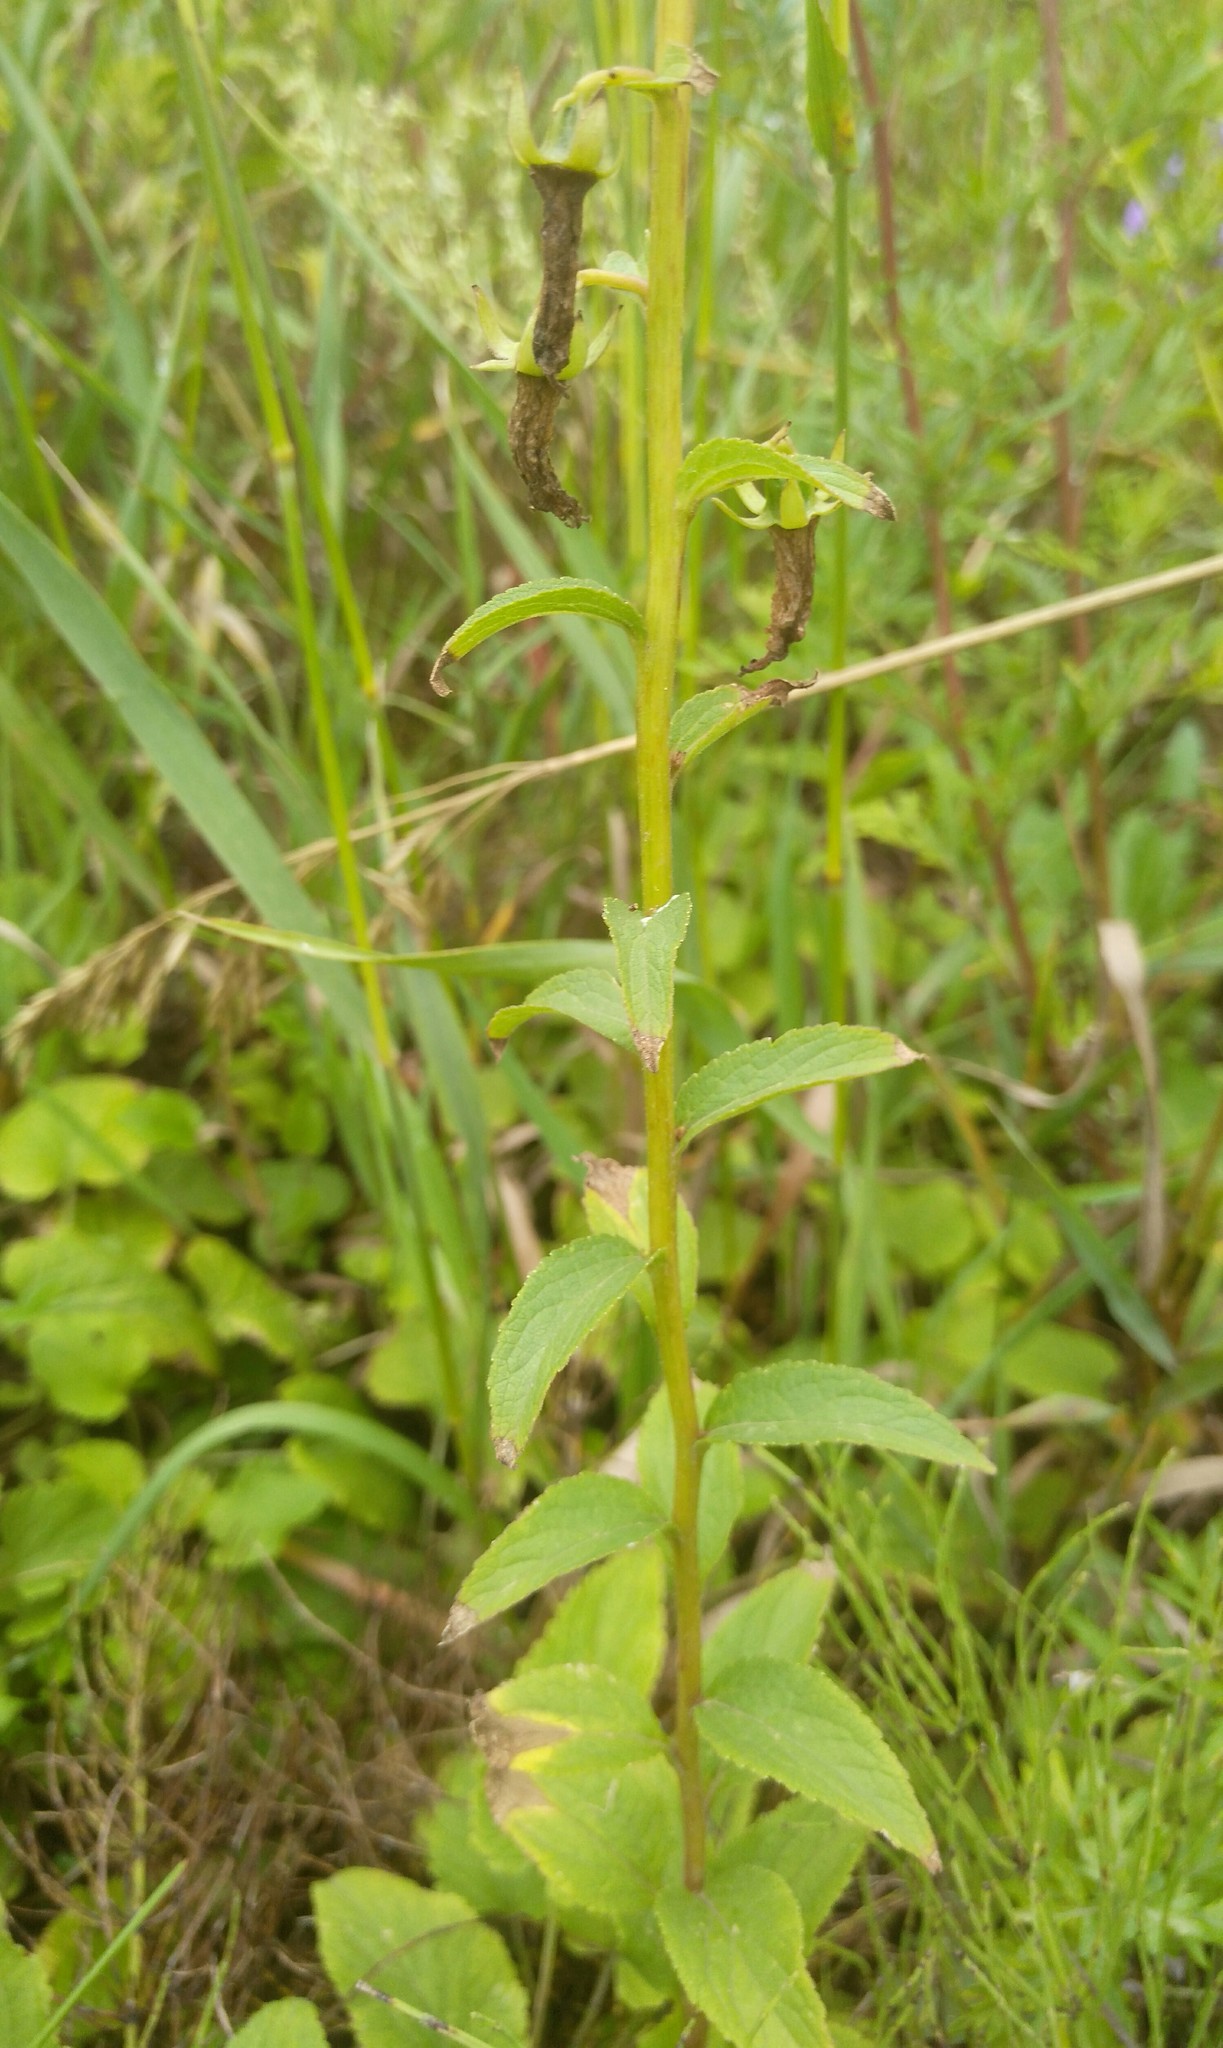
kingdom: Plantae
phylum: Tracheophyta
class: Magnoliopsida
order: Asterales
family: Campanulaceae
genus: Campanula
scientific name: Campanula rapunculoides
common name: Creeping bellflower
